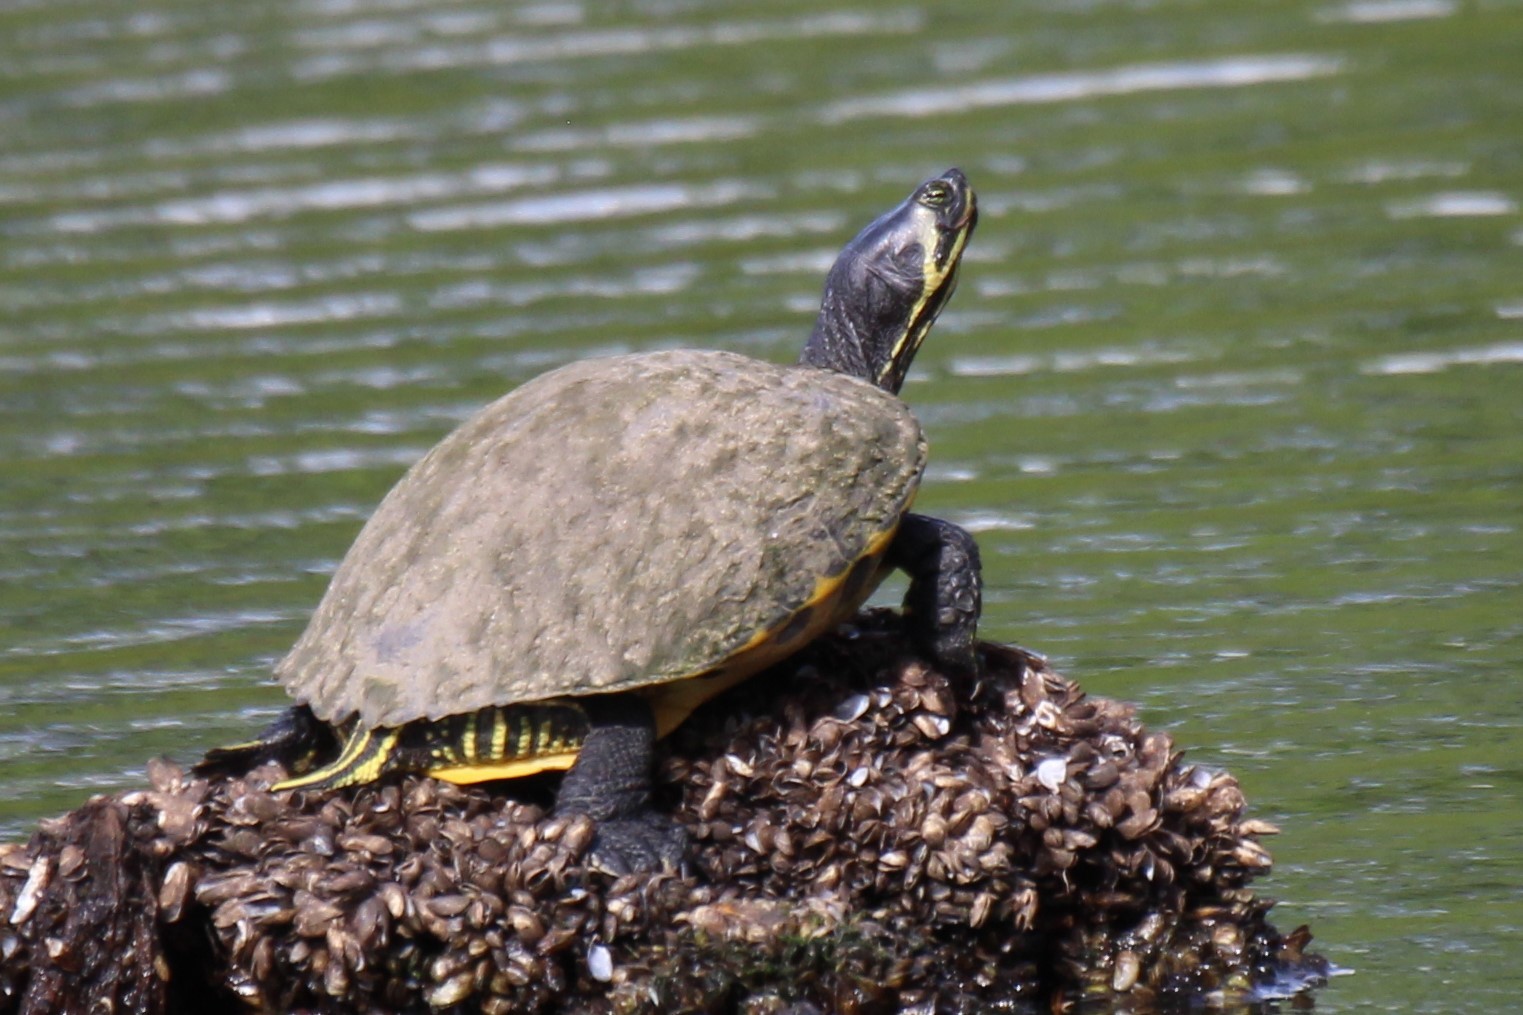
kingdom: Animalia
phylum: Chordata
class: Testudines
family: Emydidae
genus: Trachemys
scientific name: Trachemys scripta
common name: Slider
